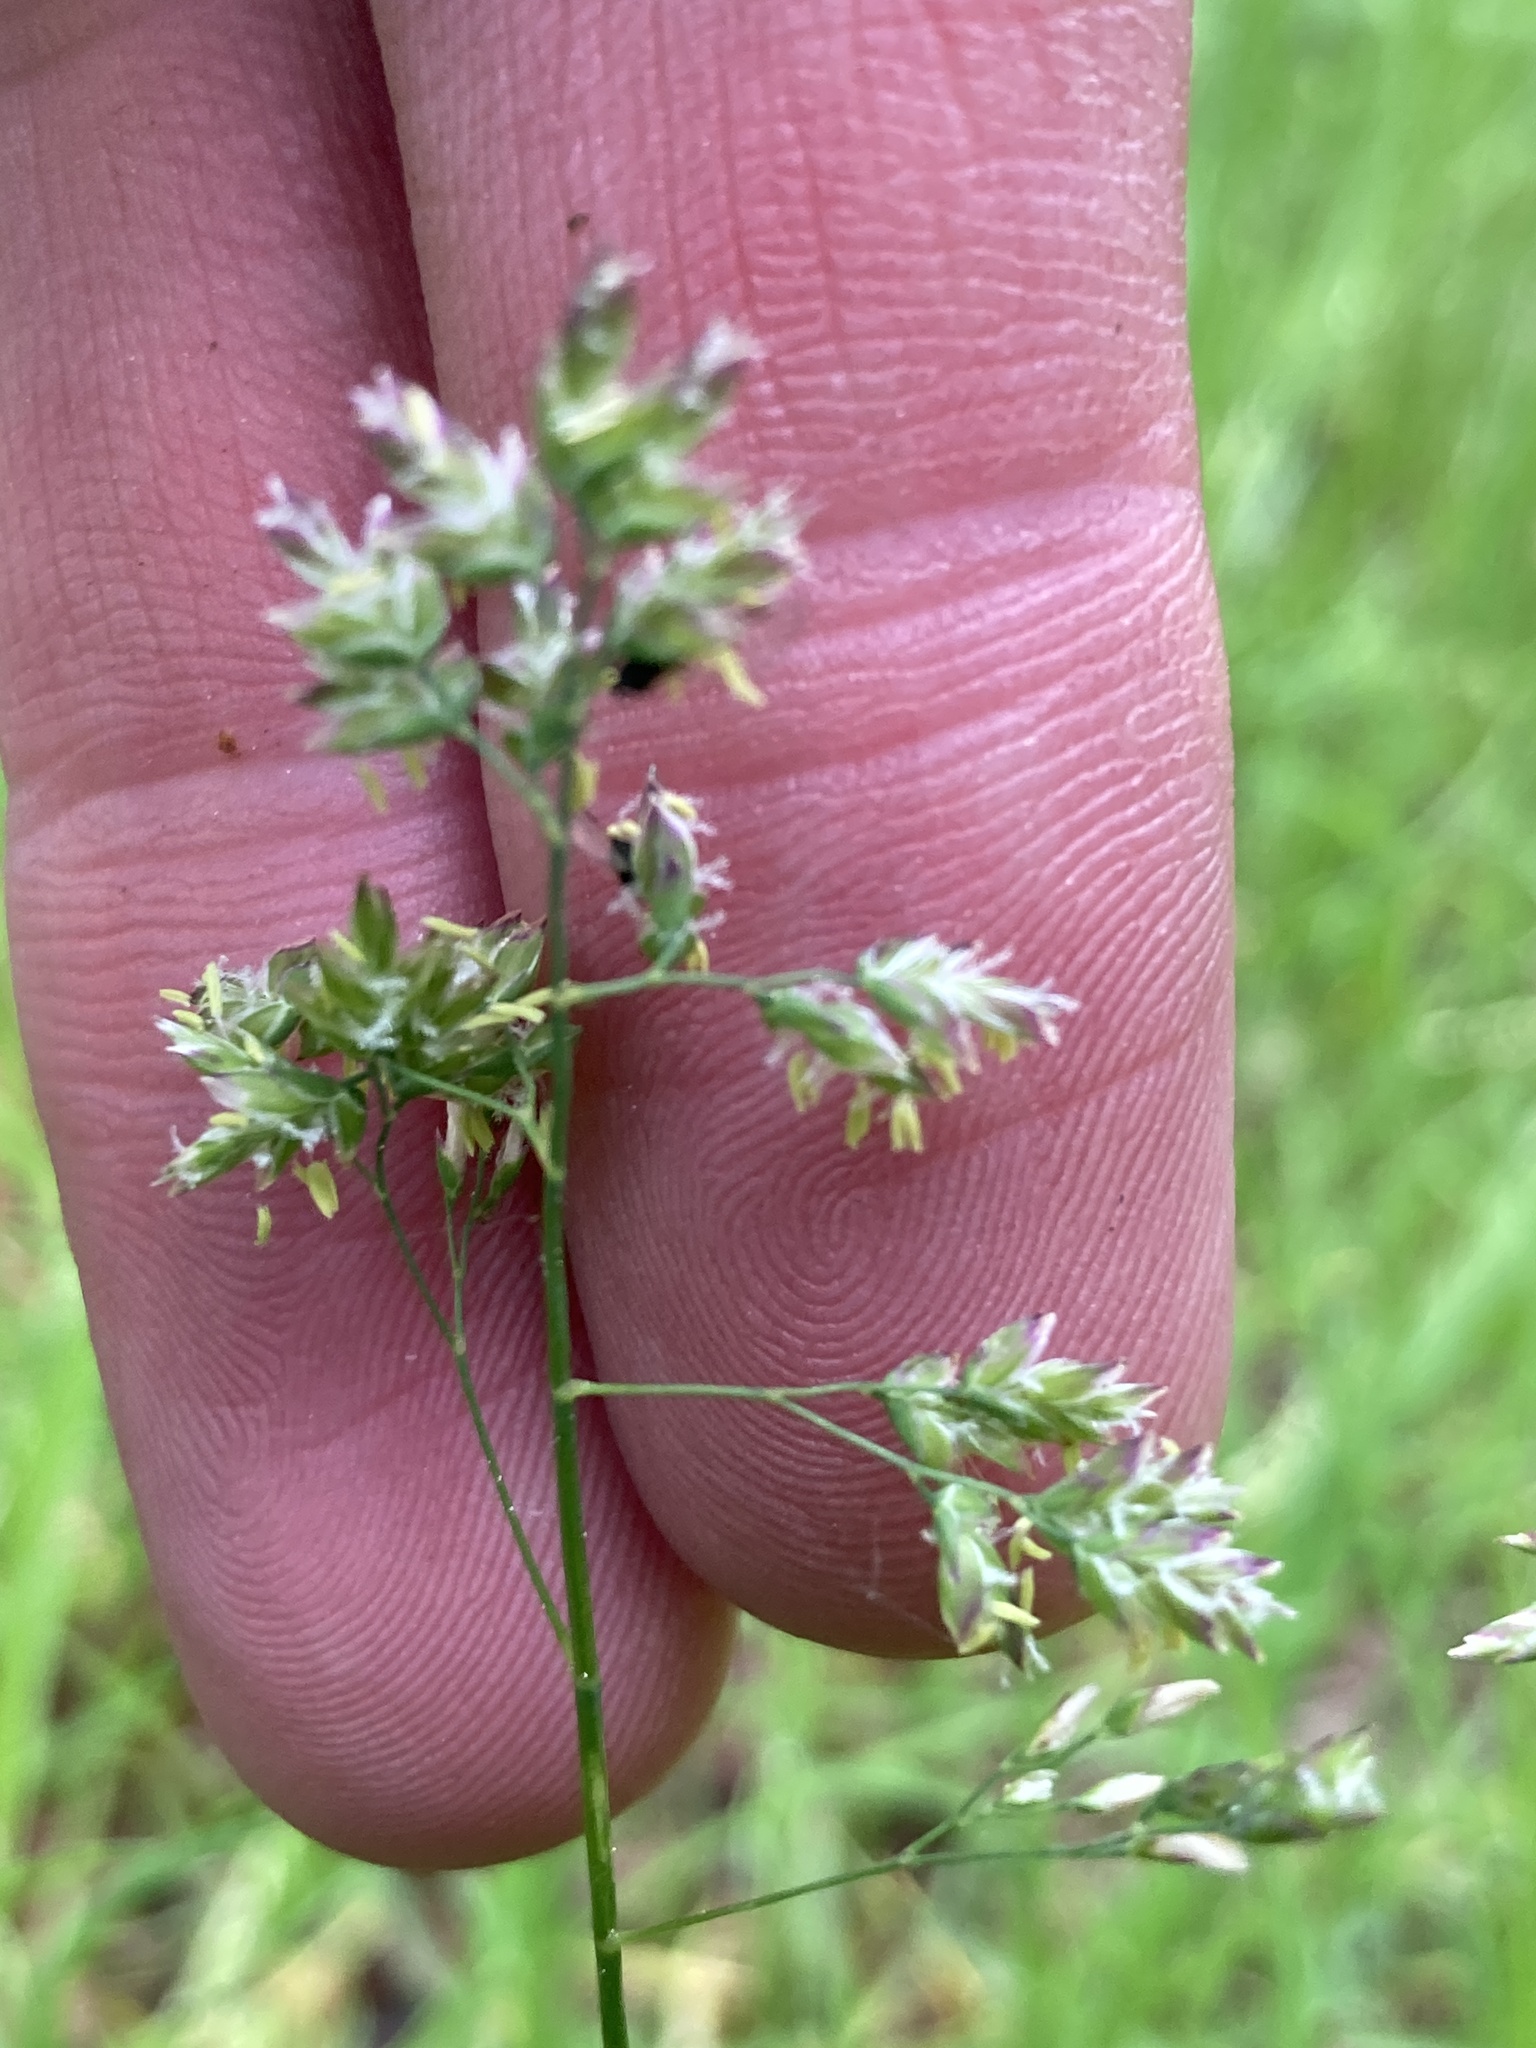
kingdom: Plantae
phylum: Tracheophyta
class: Liliopsida
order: Poales
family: Poaceae
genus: Poa
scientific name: Poa annua
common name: Annual bluegrass
